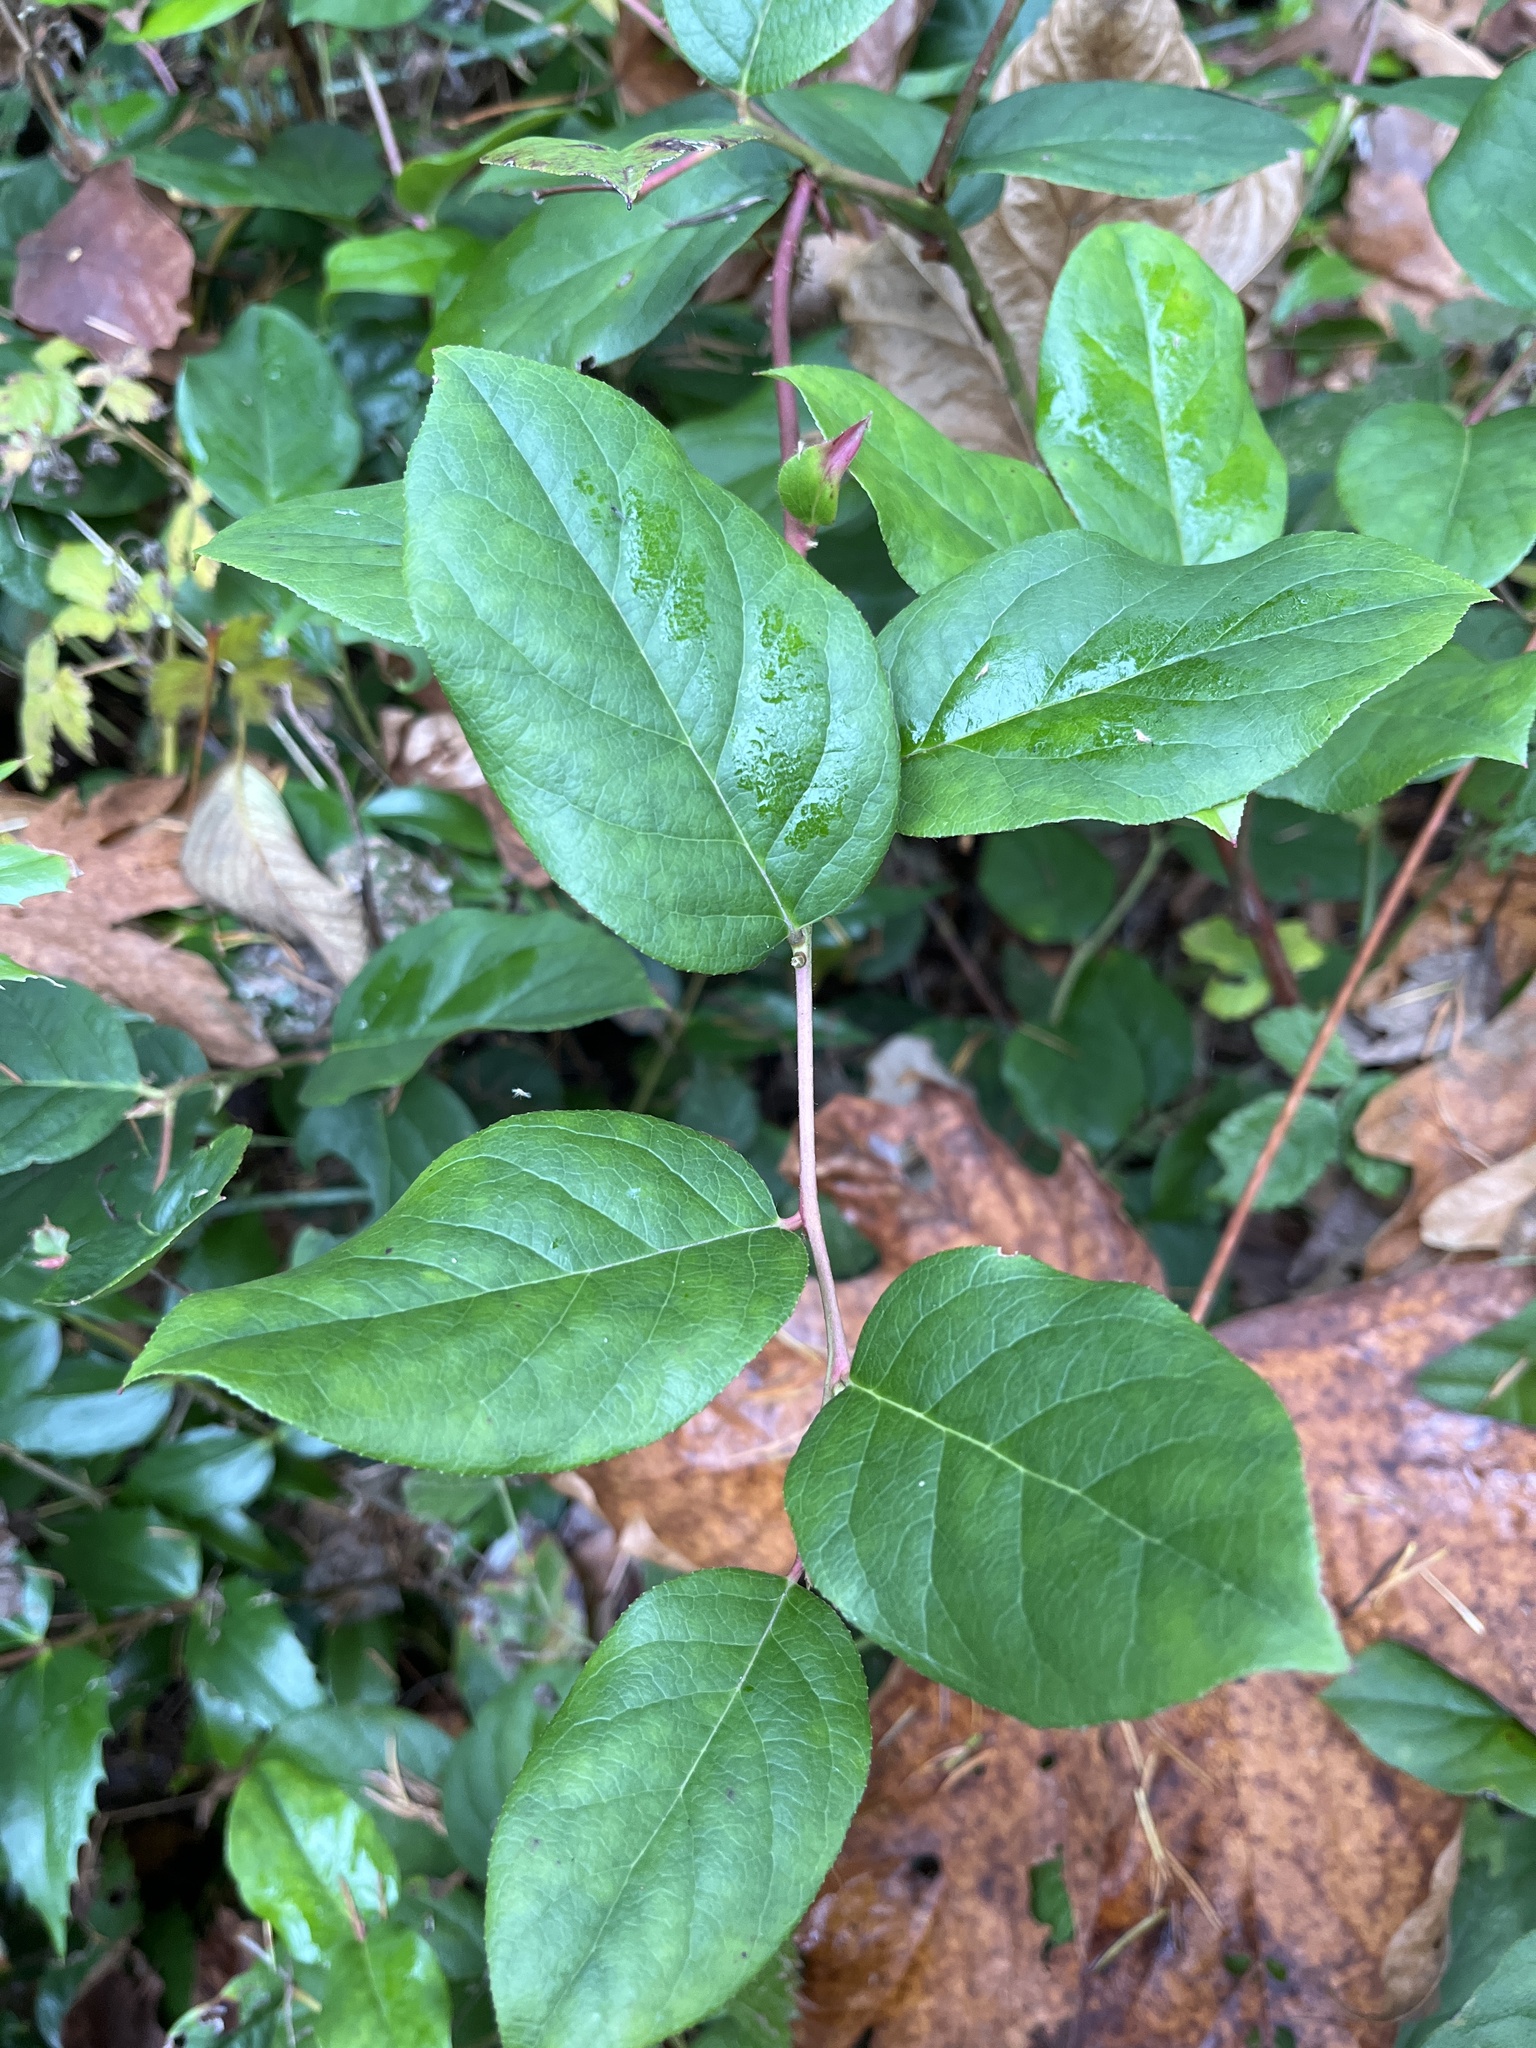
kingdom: Plantae
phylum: Tracheophyta
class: Magnoliopsida
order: Ericales
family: Ericaceae
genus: Gaultheria
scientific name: Gaultheria shallon
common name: Shallon
